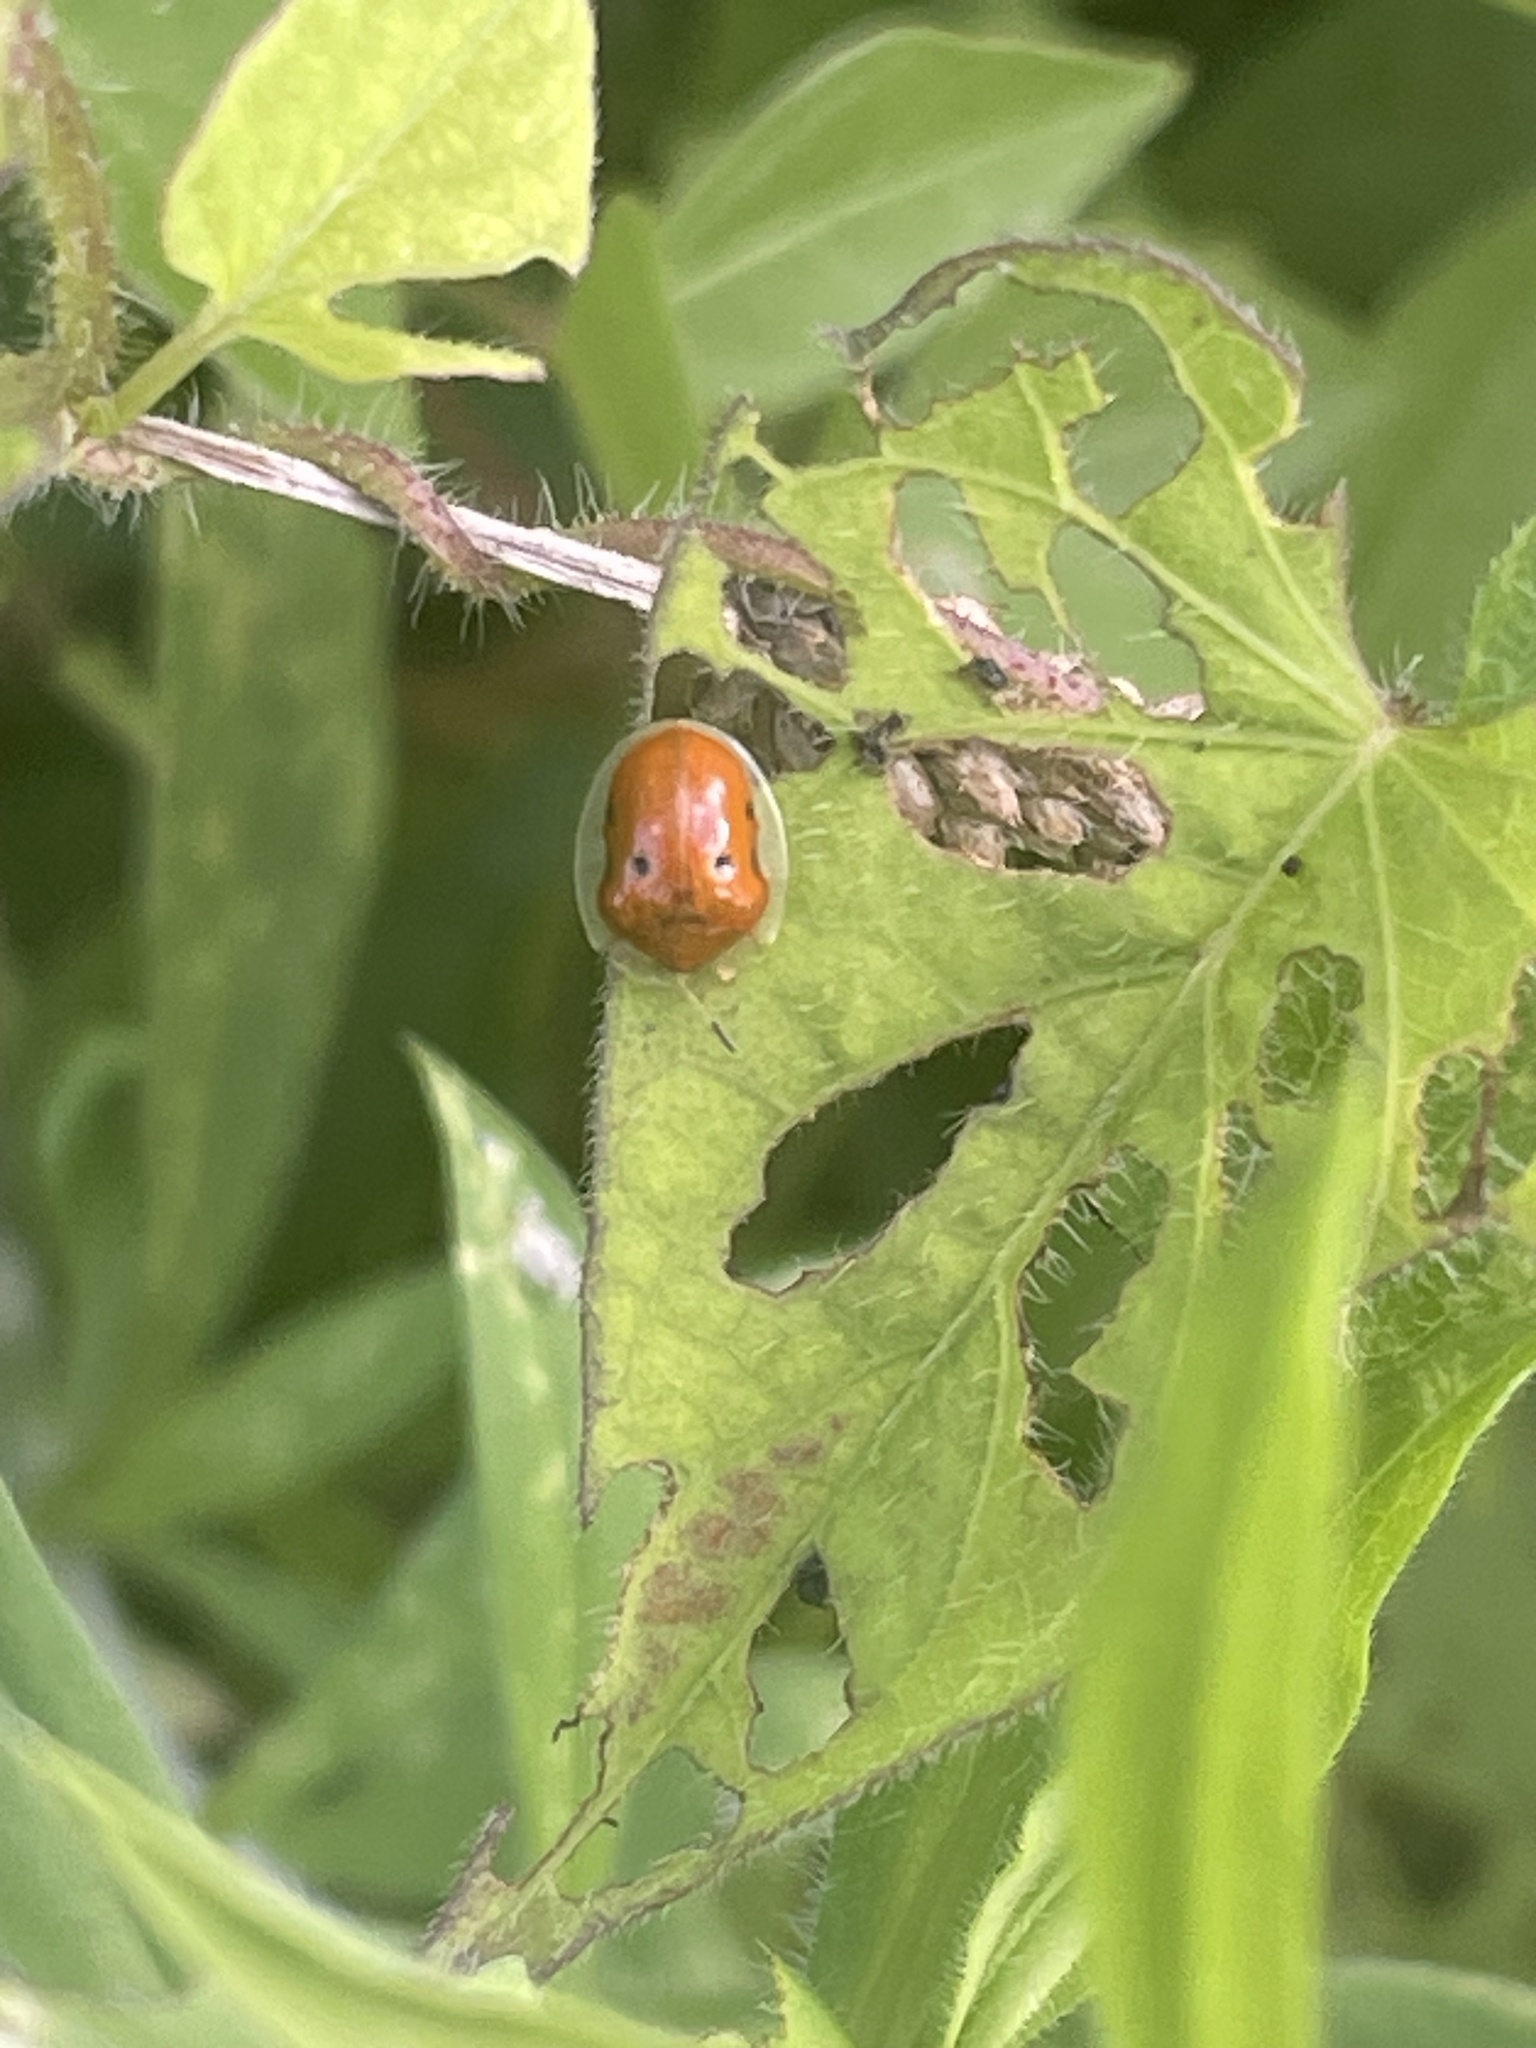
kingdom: Animalia
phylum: Arthropoda
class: Insecta
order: Coleoptera
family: Chrysomelidae
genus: Charidotella
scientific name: Charidotella sexpunctata
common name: Golden tortoise beetle
